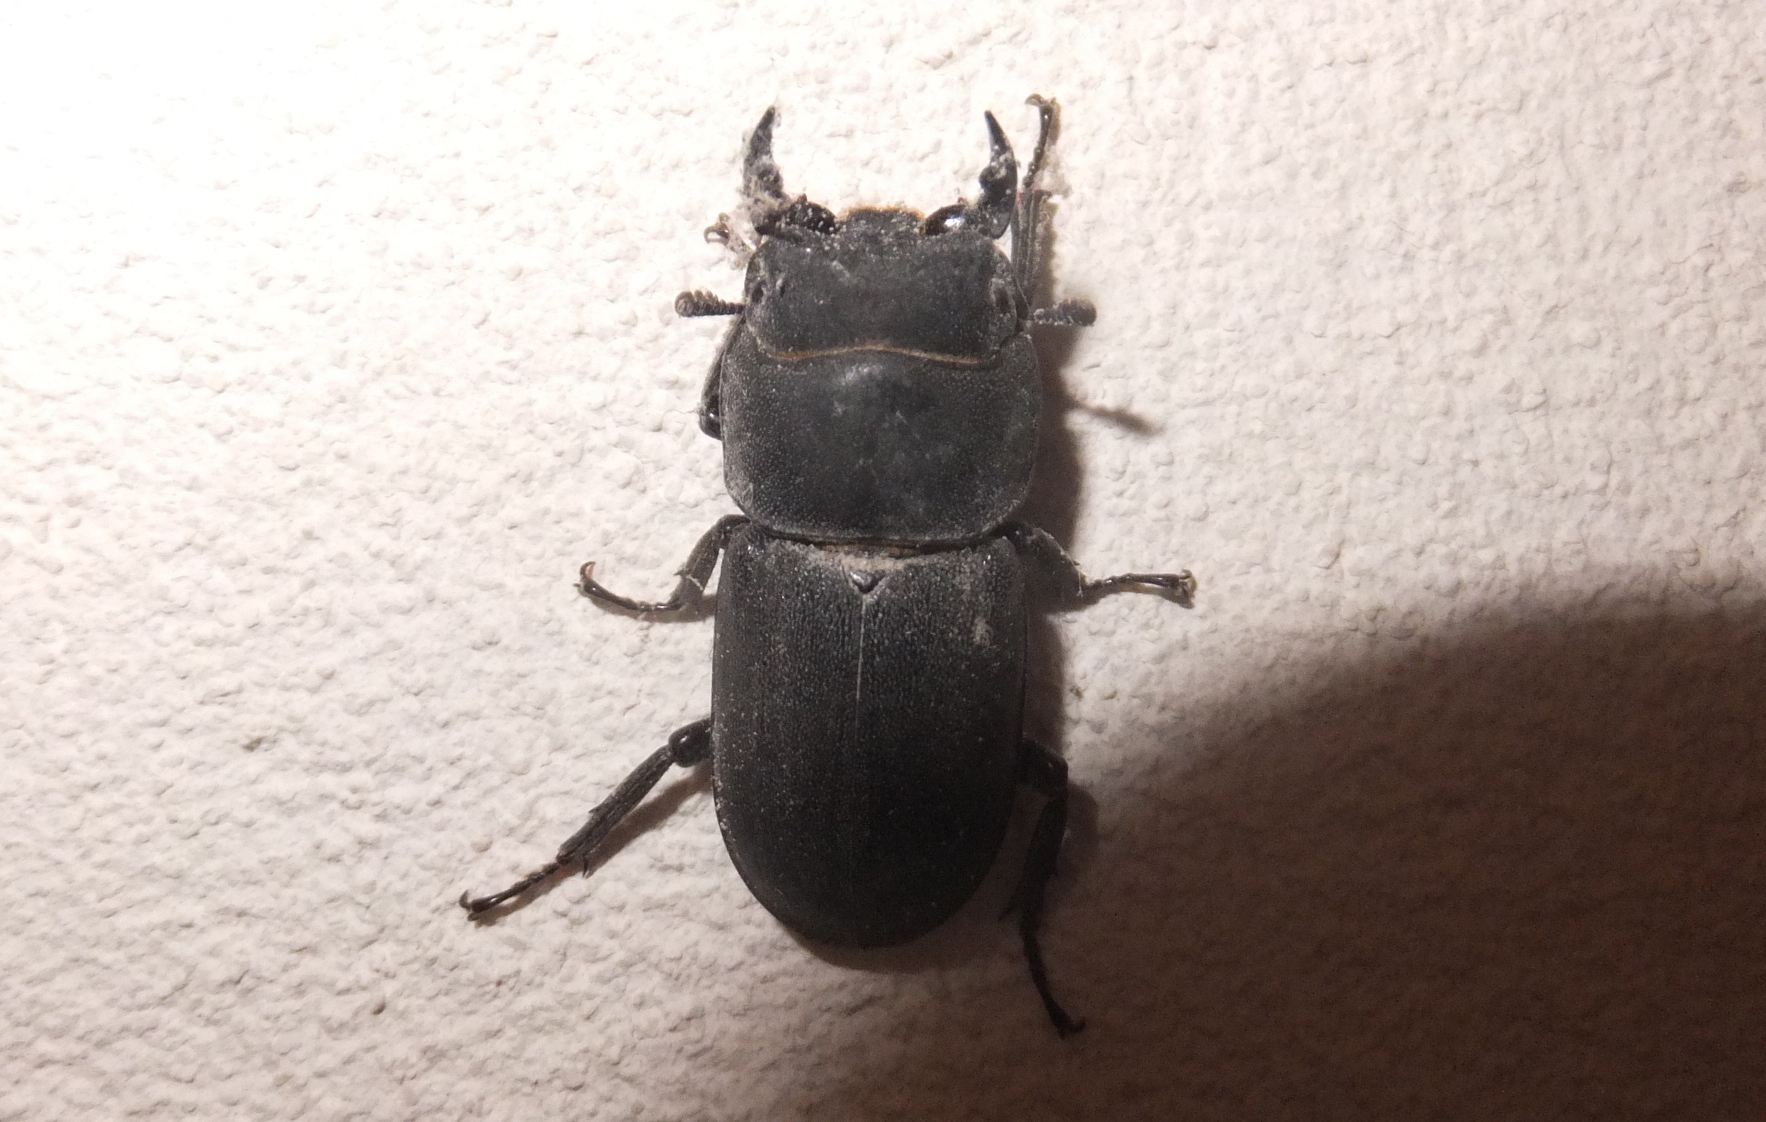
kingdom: Animalia
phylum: Arthropoda
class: Insecta
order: Coleoptera
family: Lucanidae
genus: Dorcus
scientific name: Dorcus parallelipipedus
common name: Lesser stag beetle
